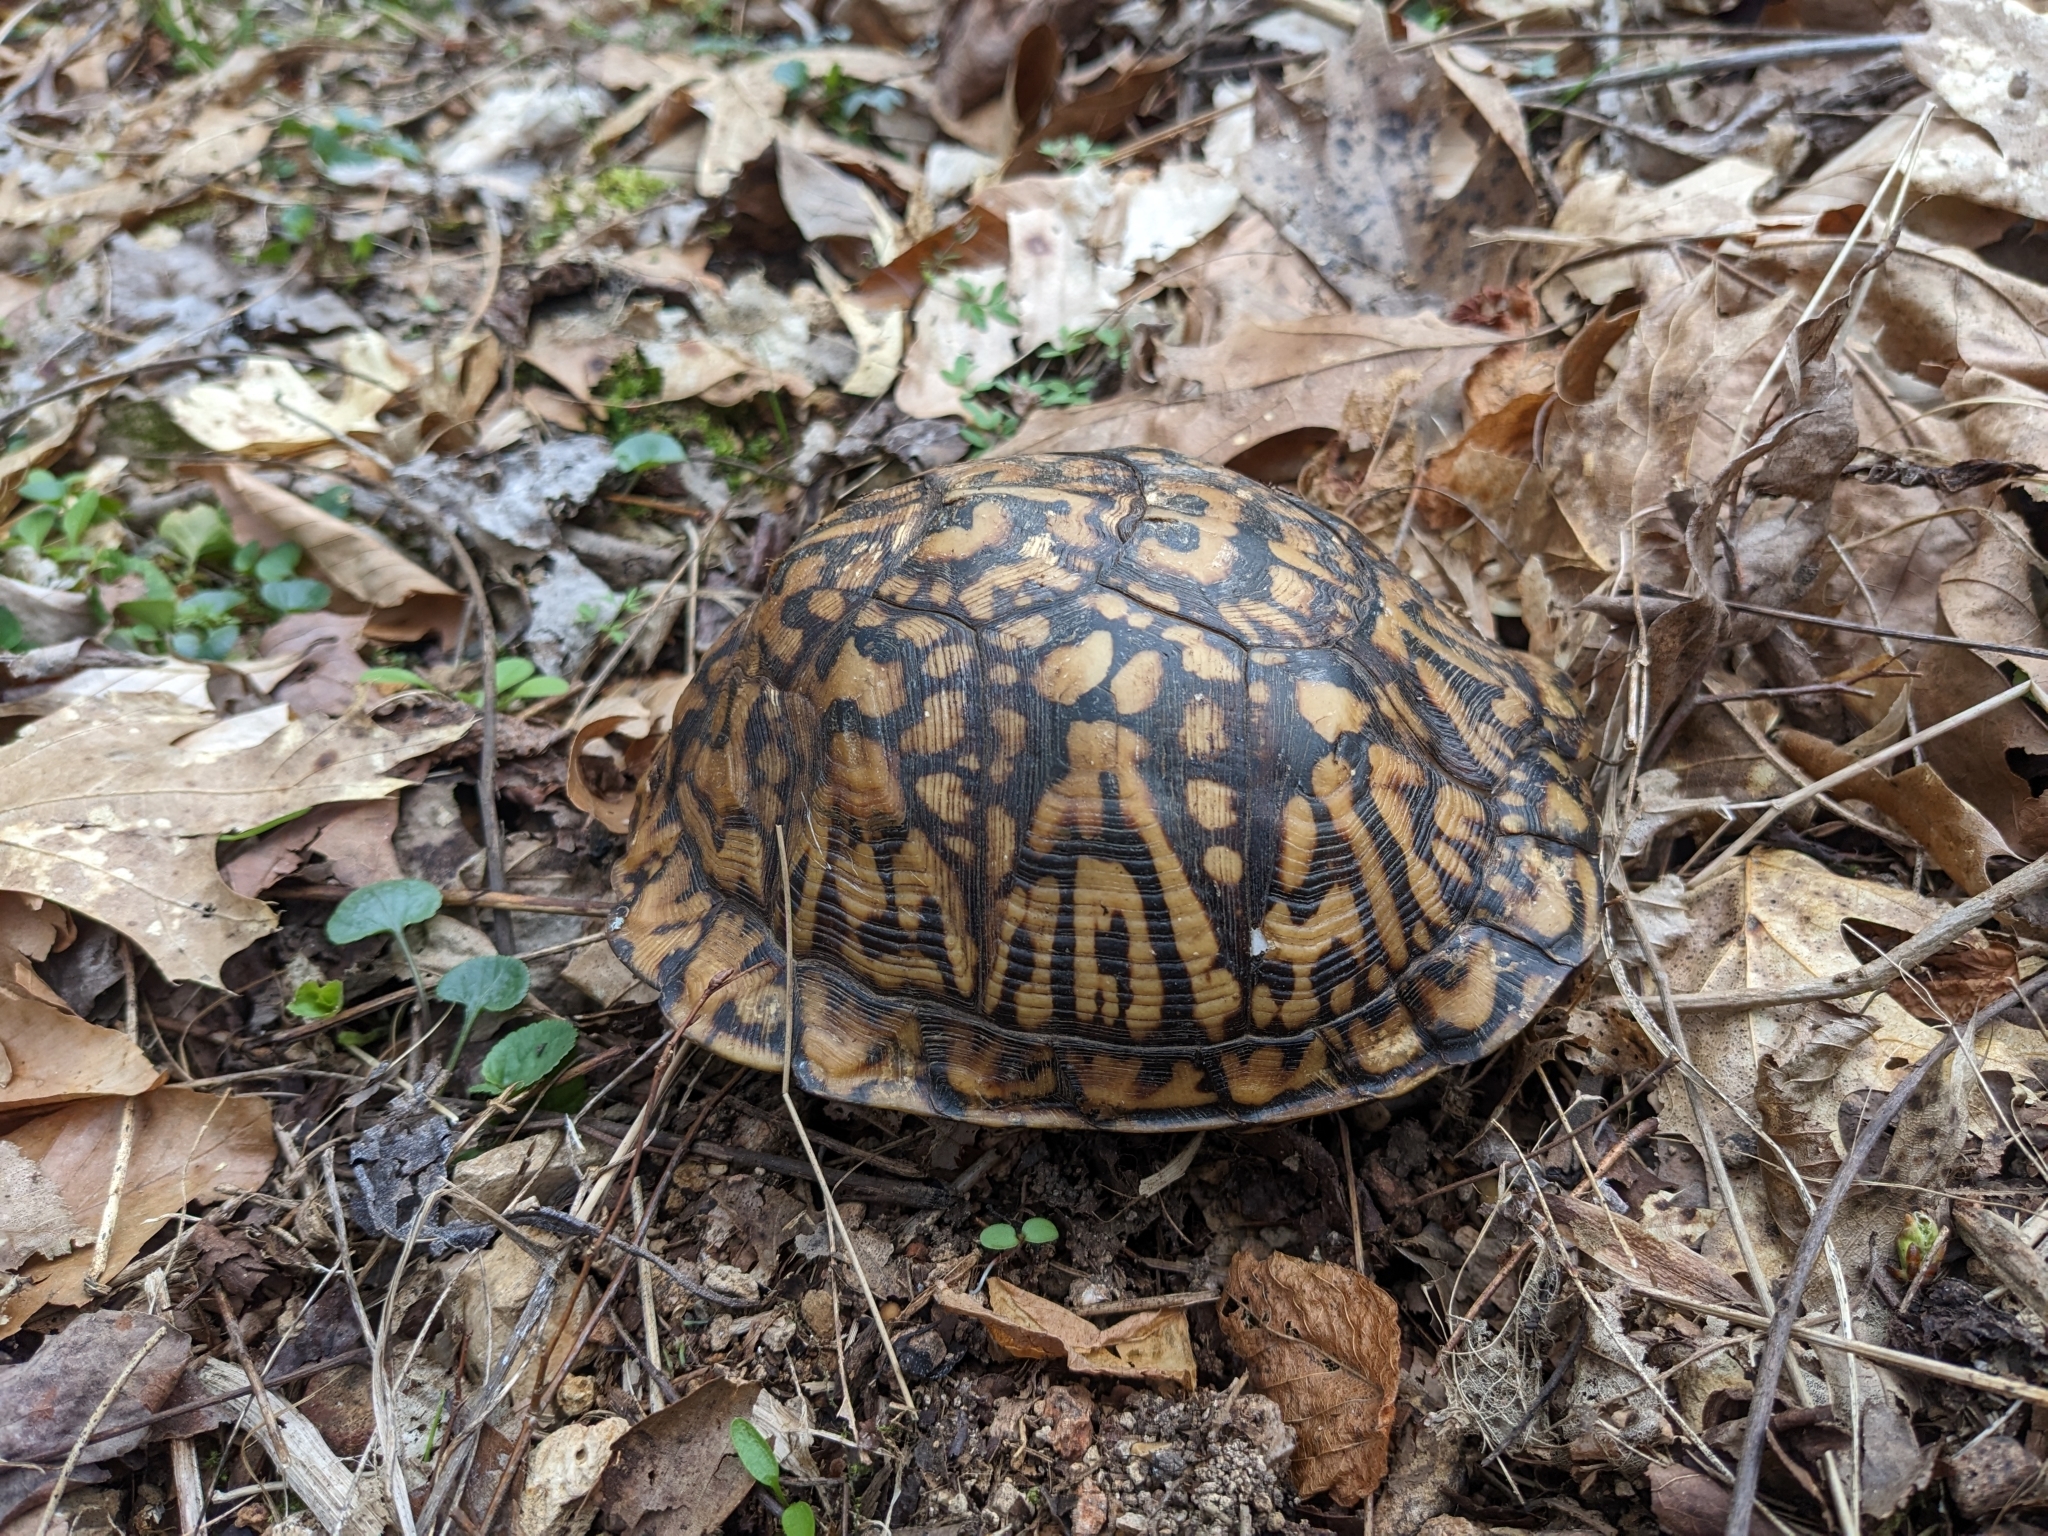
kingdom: Animalia
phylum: Chordata
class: Testudines
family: Emydidae
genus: Terrapene
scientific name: Terrapene carolina
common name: Common box turtle
